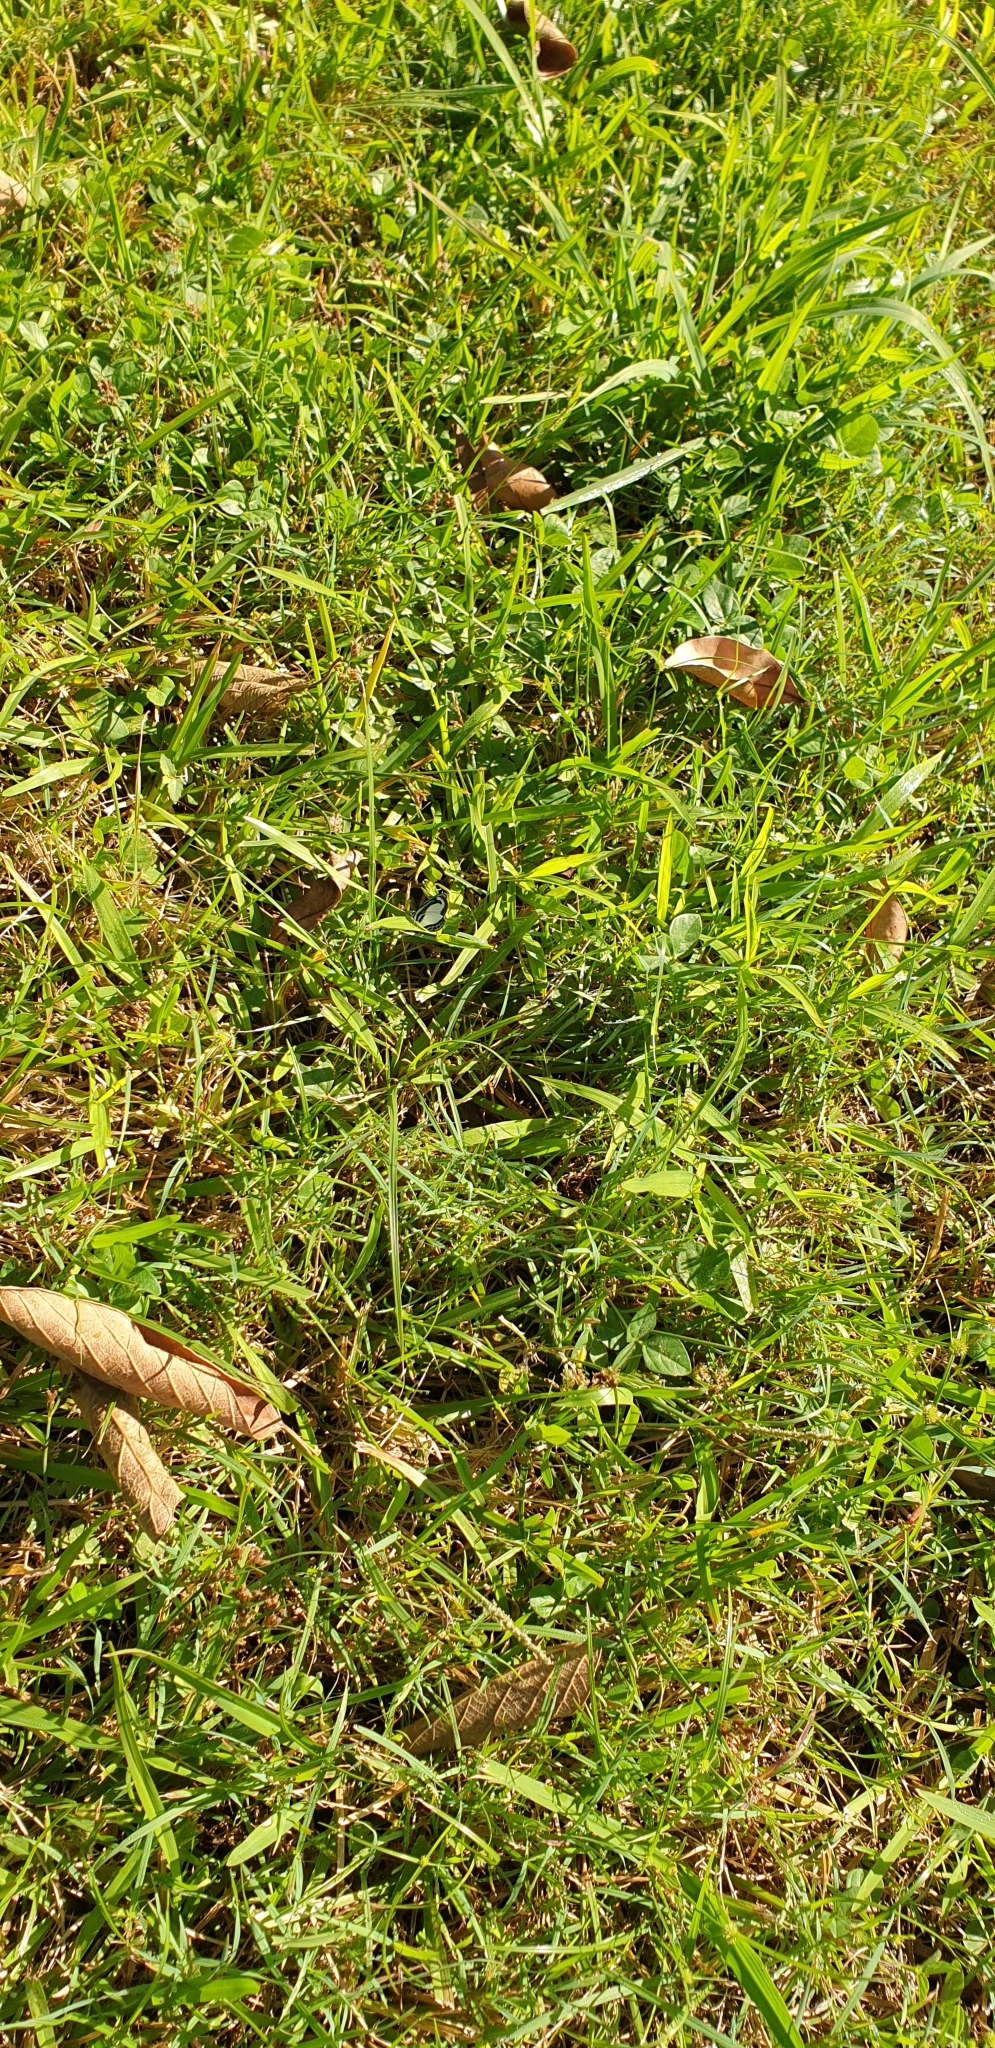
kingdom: Animalia
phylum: Arthropoda
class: Insecta
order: Lepidoptera
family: Lycaenidae
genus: Psychonotis
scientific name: Psychonotis caelius
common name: Small green banded blue
